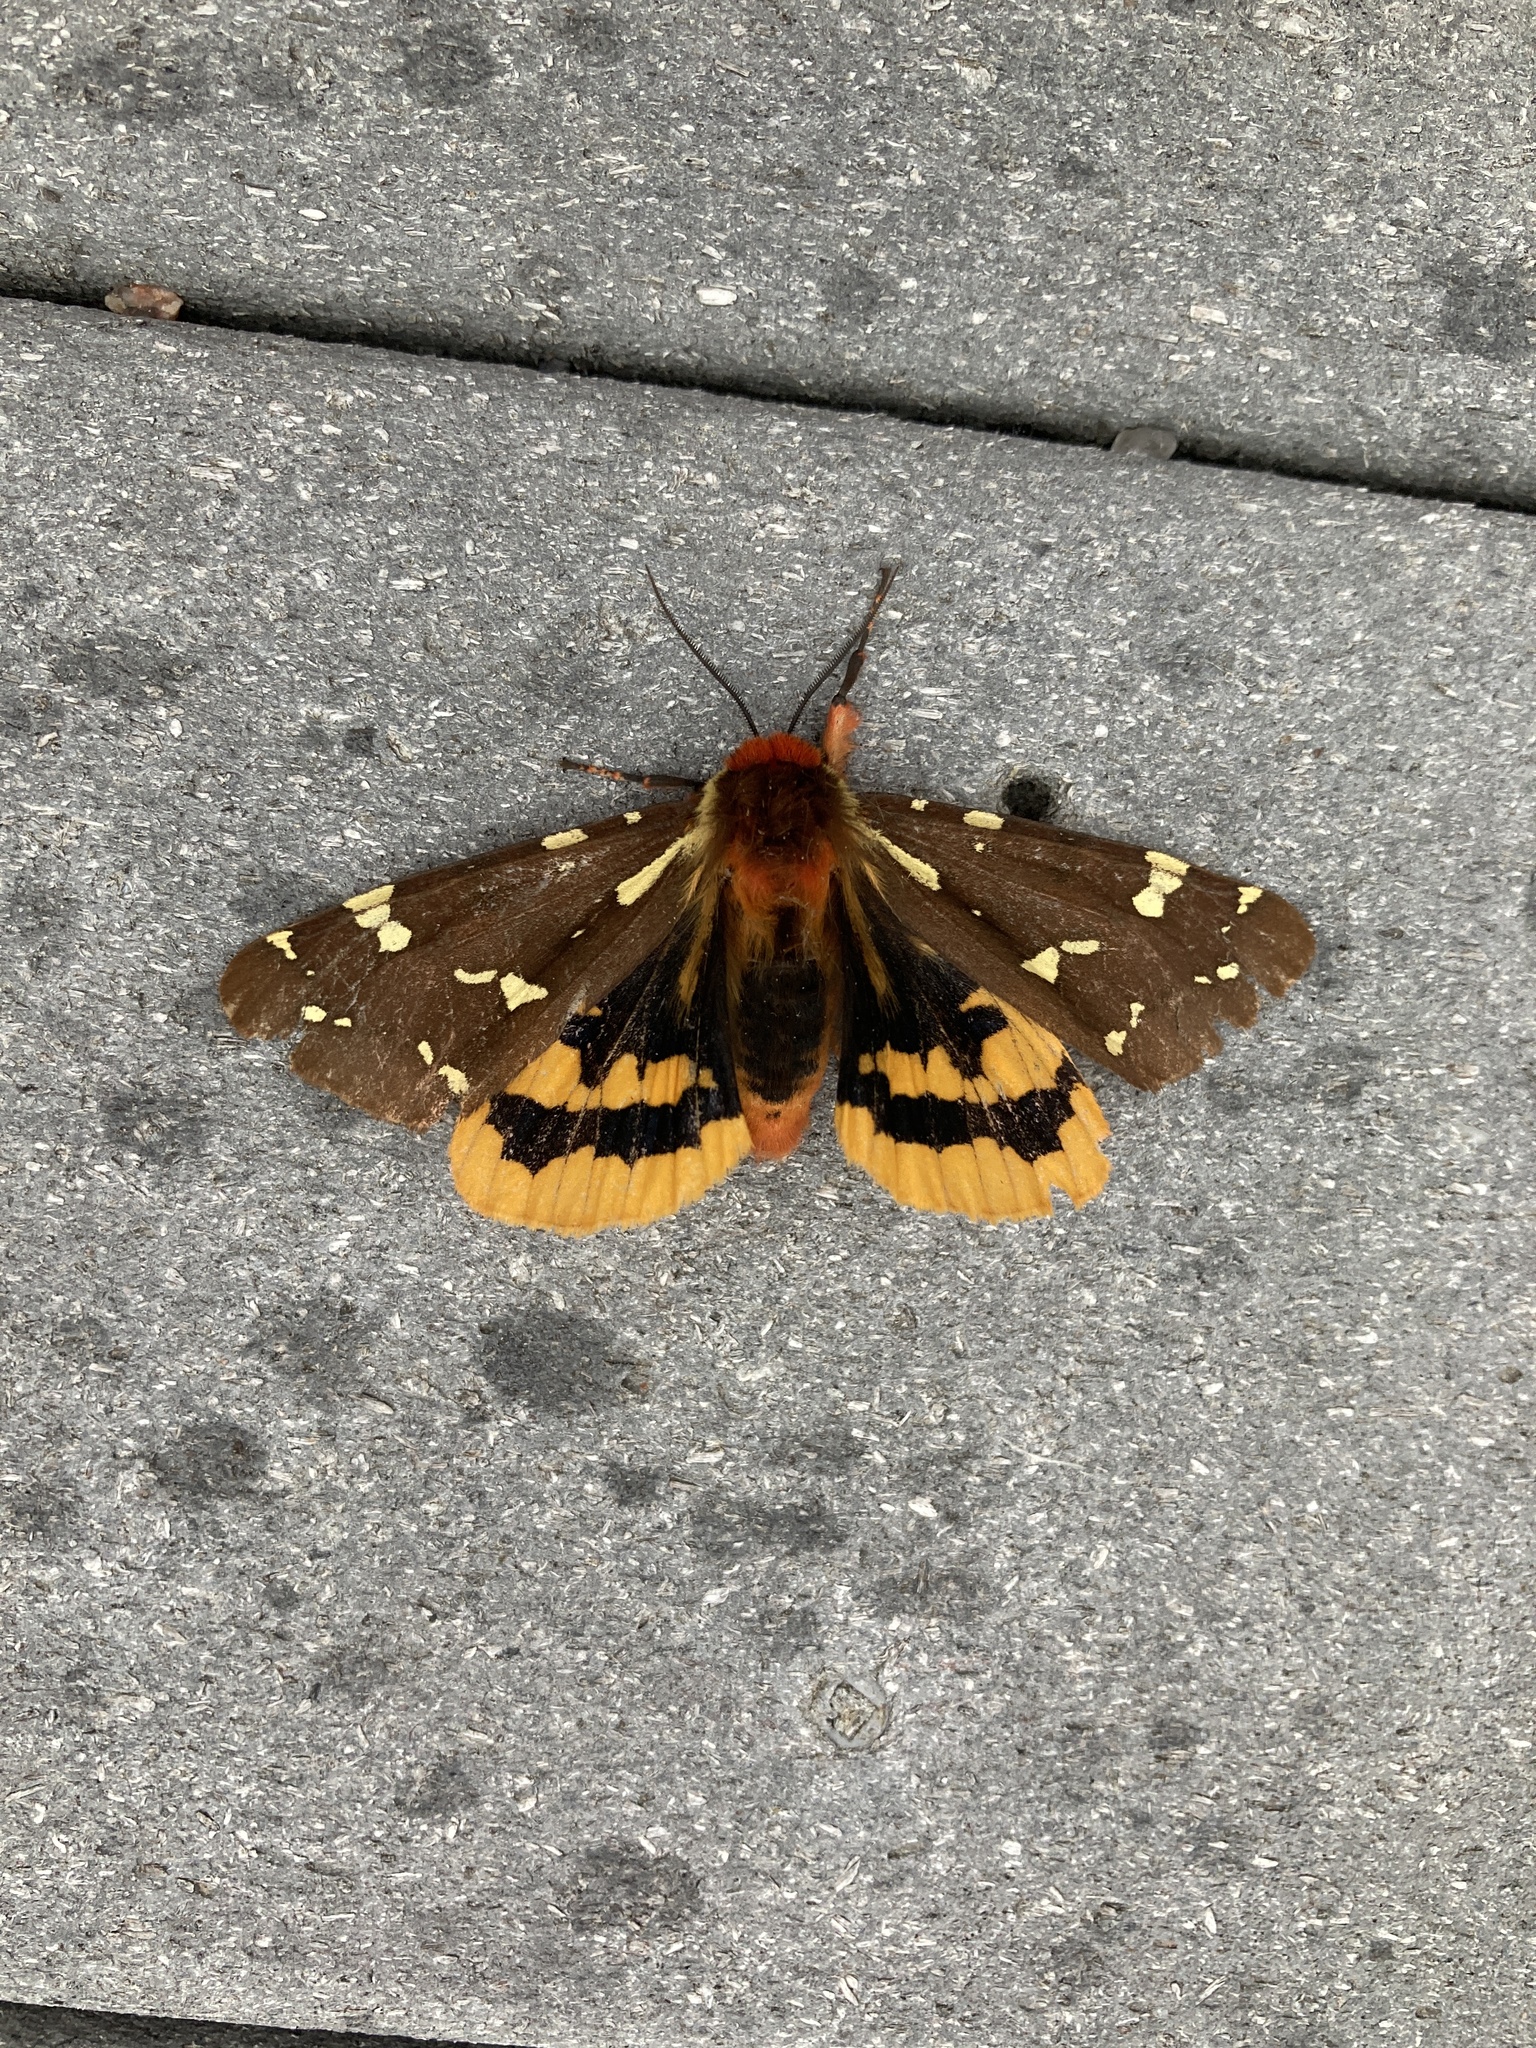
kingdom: Animalia
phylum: Arthropoda
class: Insecta
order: Lepidoptera
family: Erebidae
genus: Arctia
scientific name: Arctia parthenos
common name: St. lawrence tiger moth
